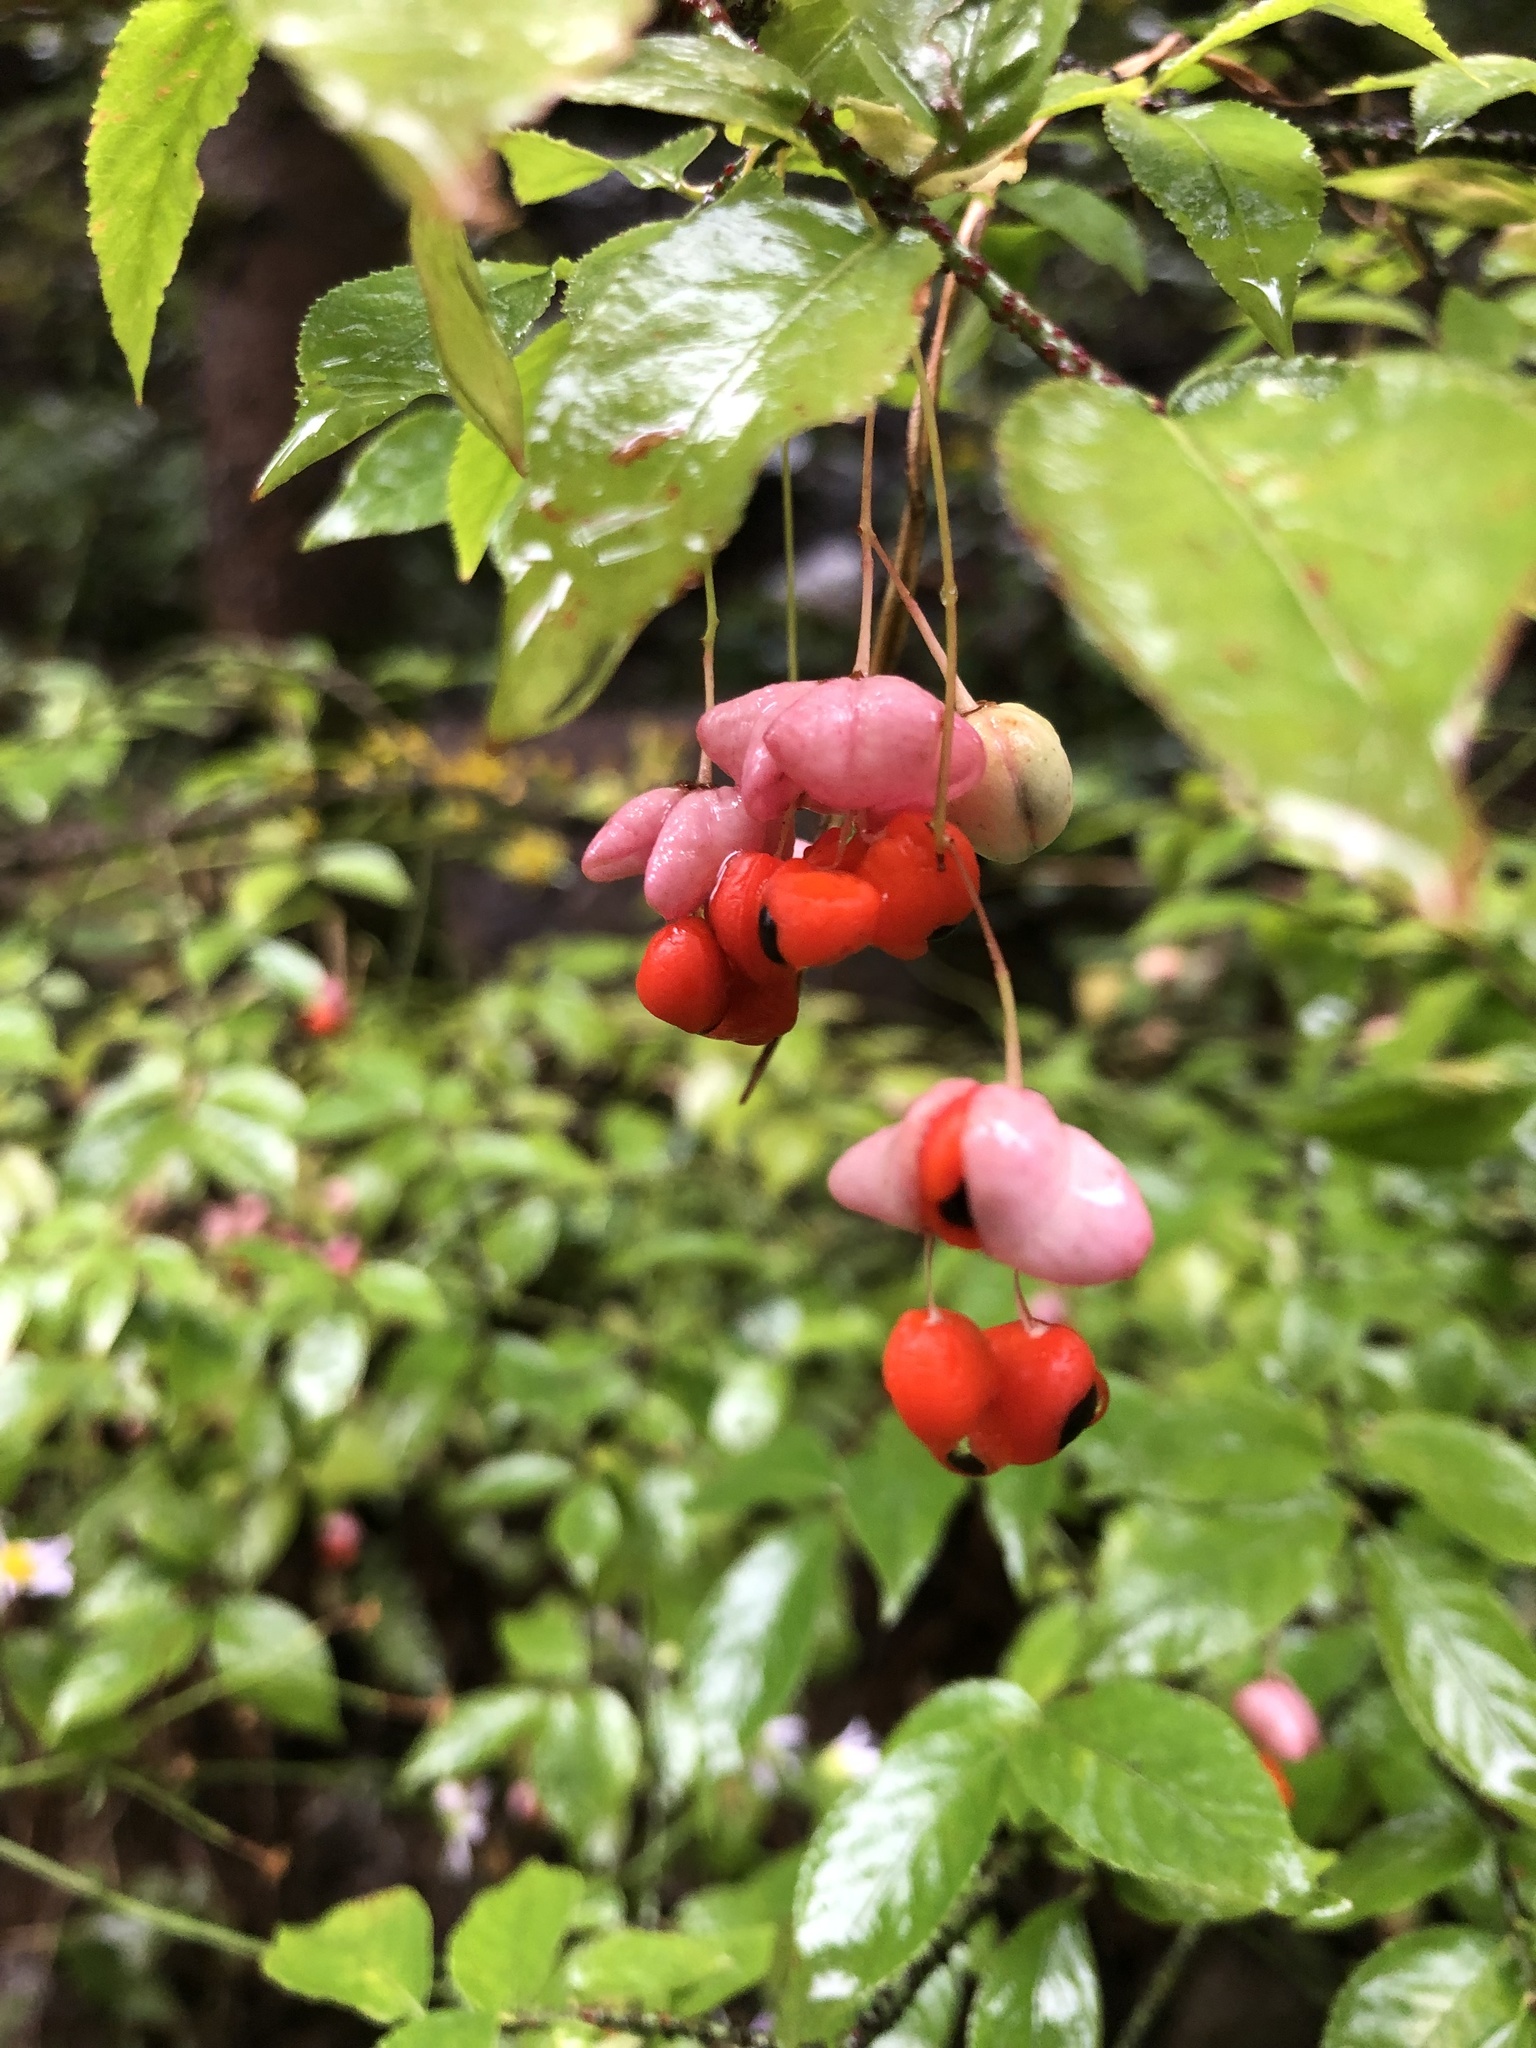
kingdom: Plantae
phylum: Tracheophyta
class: Magnoliopsida
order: Celastrales
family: Celastraceae
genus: Euonymus
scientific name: Euonymus verrucosus
